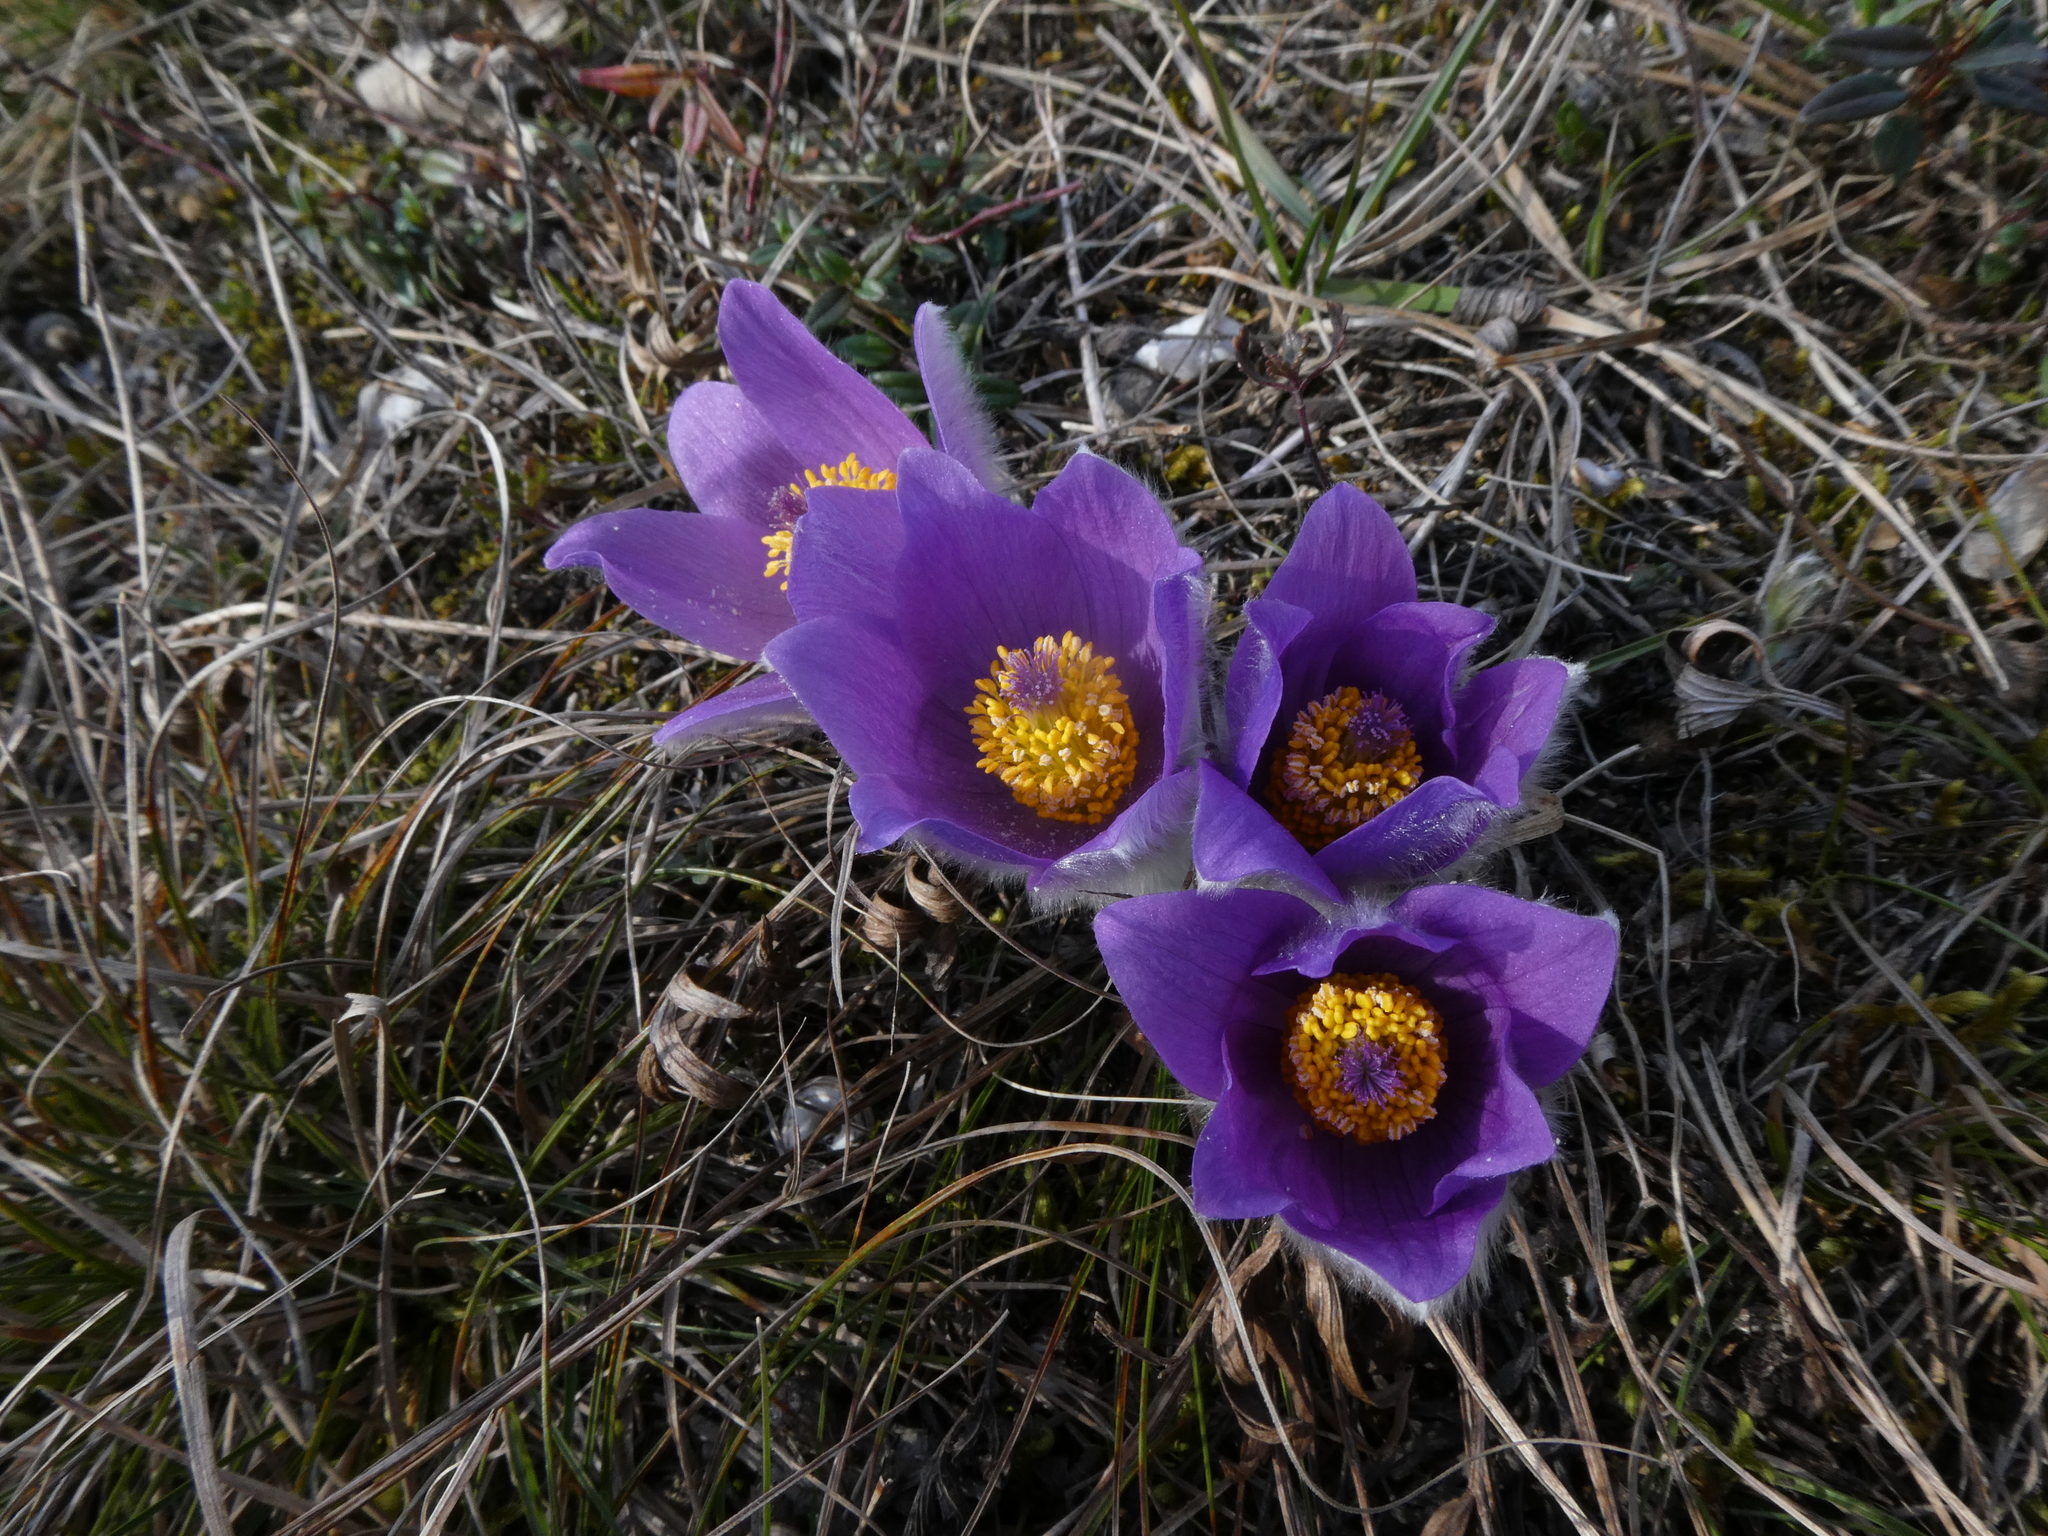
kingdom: Plantae
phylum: Tracheophyta
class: Magnoliopsida
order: Ranunculales
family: Ranunculaceae
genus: Pulsatilla
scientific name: Pulsatilla grandis
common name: Greater pasque flower
